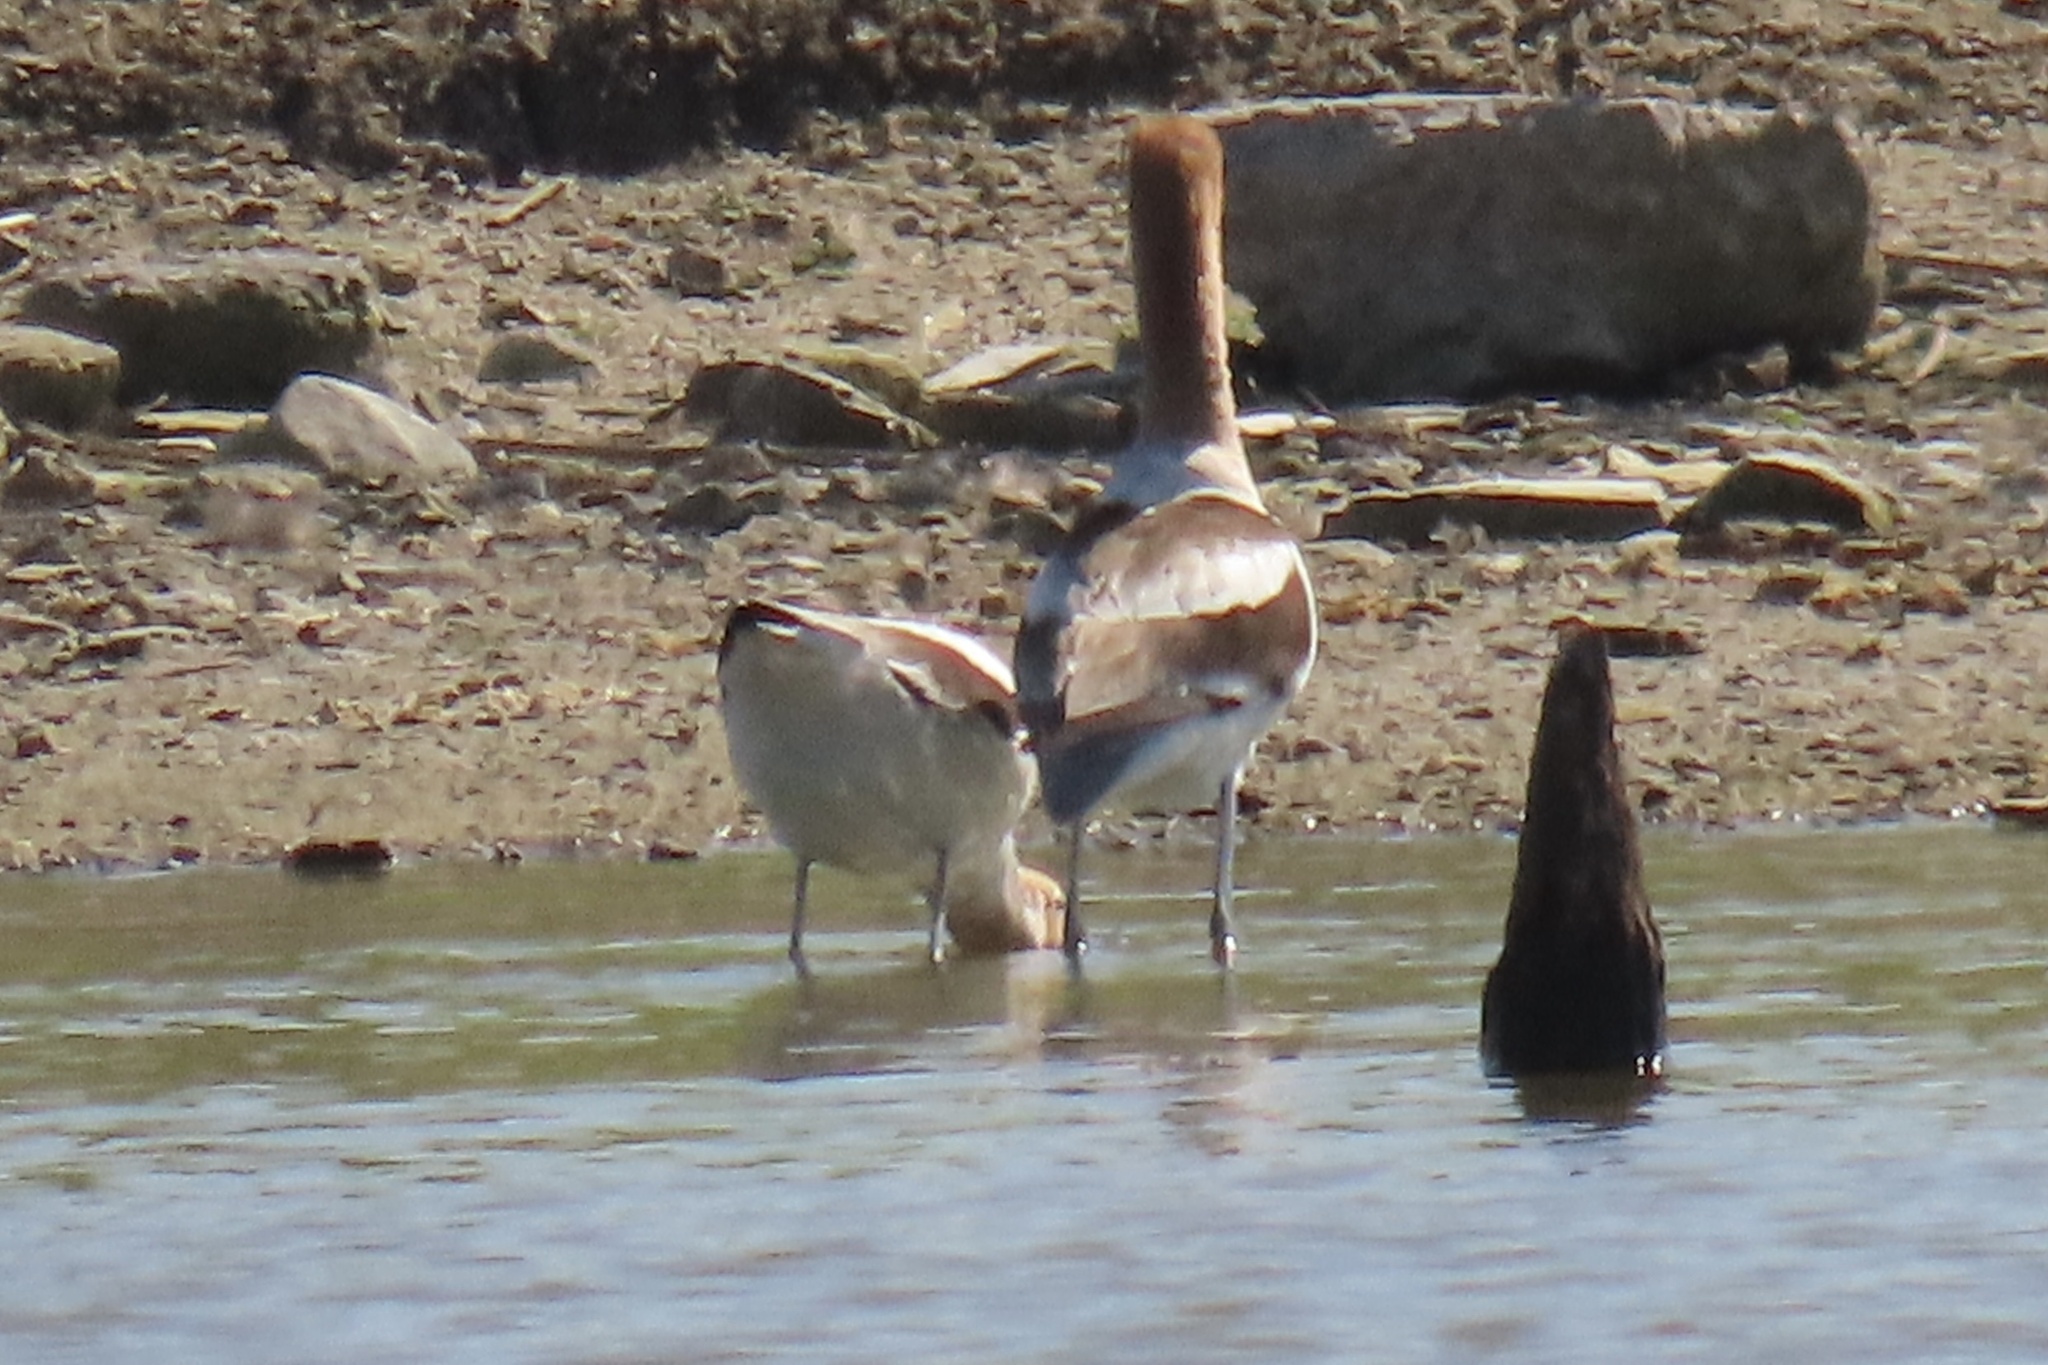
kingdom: Animalia
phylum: Chordata
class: Aves
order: Charadriiformes
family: Recurvirostridae
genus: Recurvirostra
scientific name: Recurvirostra americana
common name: American avocet
